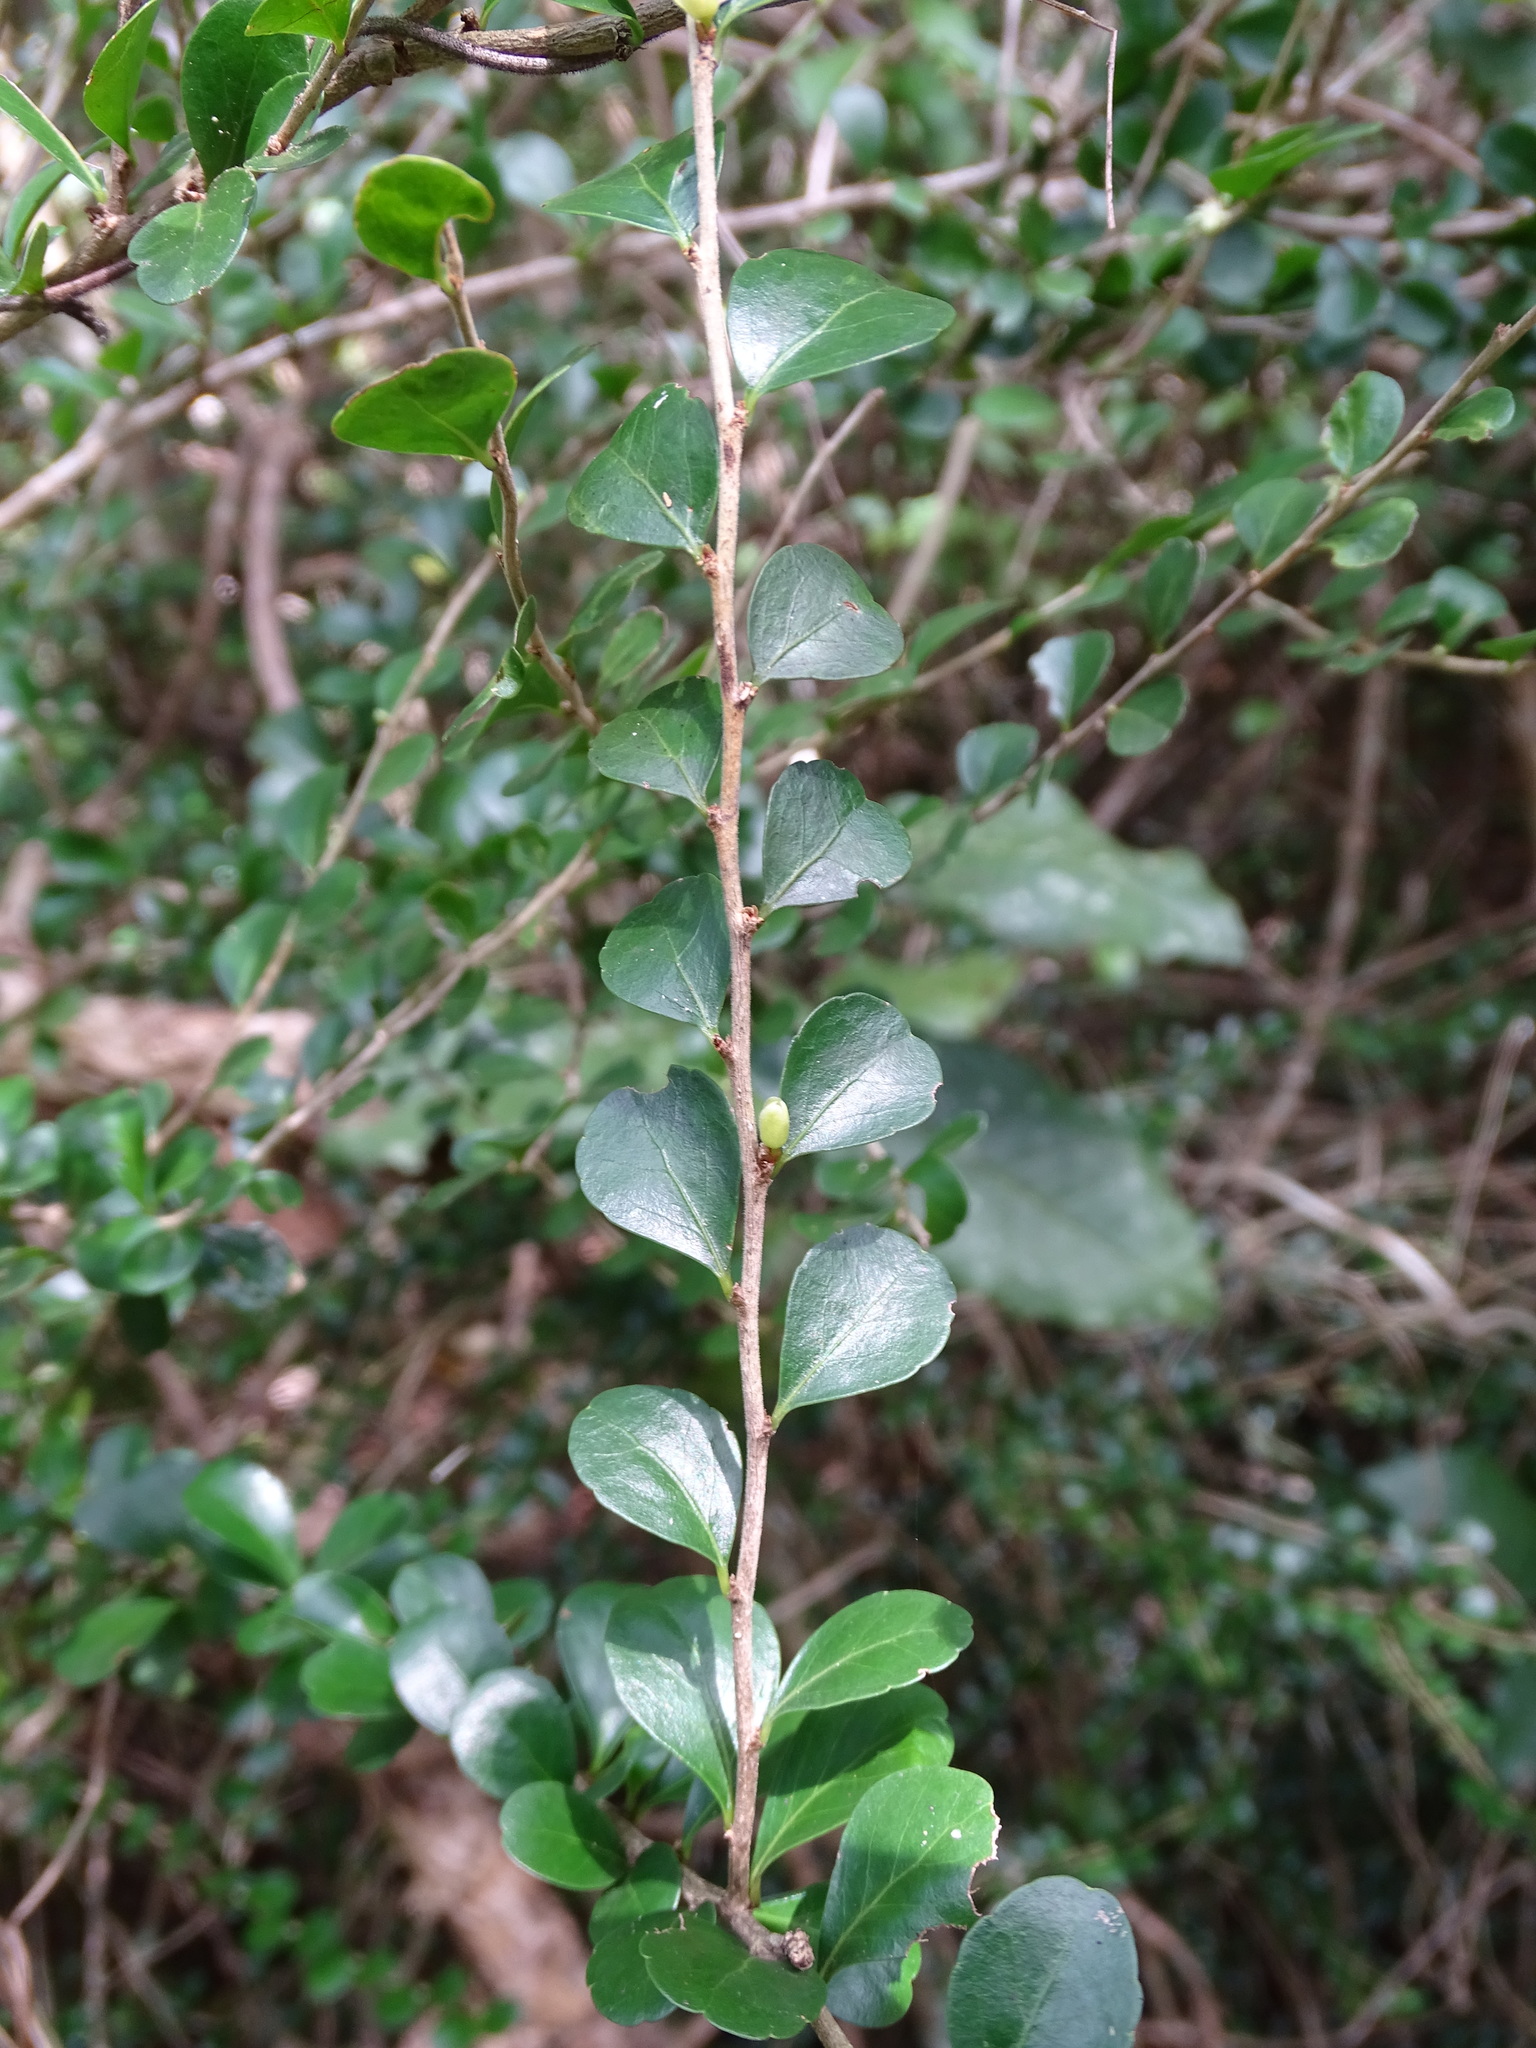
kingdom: Plantae
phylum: Tracheophyta
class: Magnoliopsida
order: Malpighiales
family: Salicaceae
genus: Casearia
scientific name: Casearia emarginata
